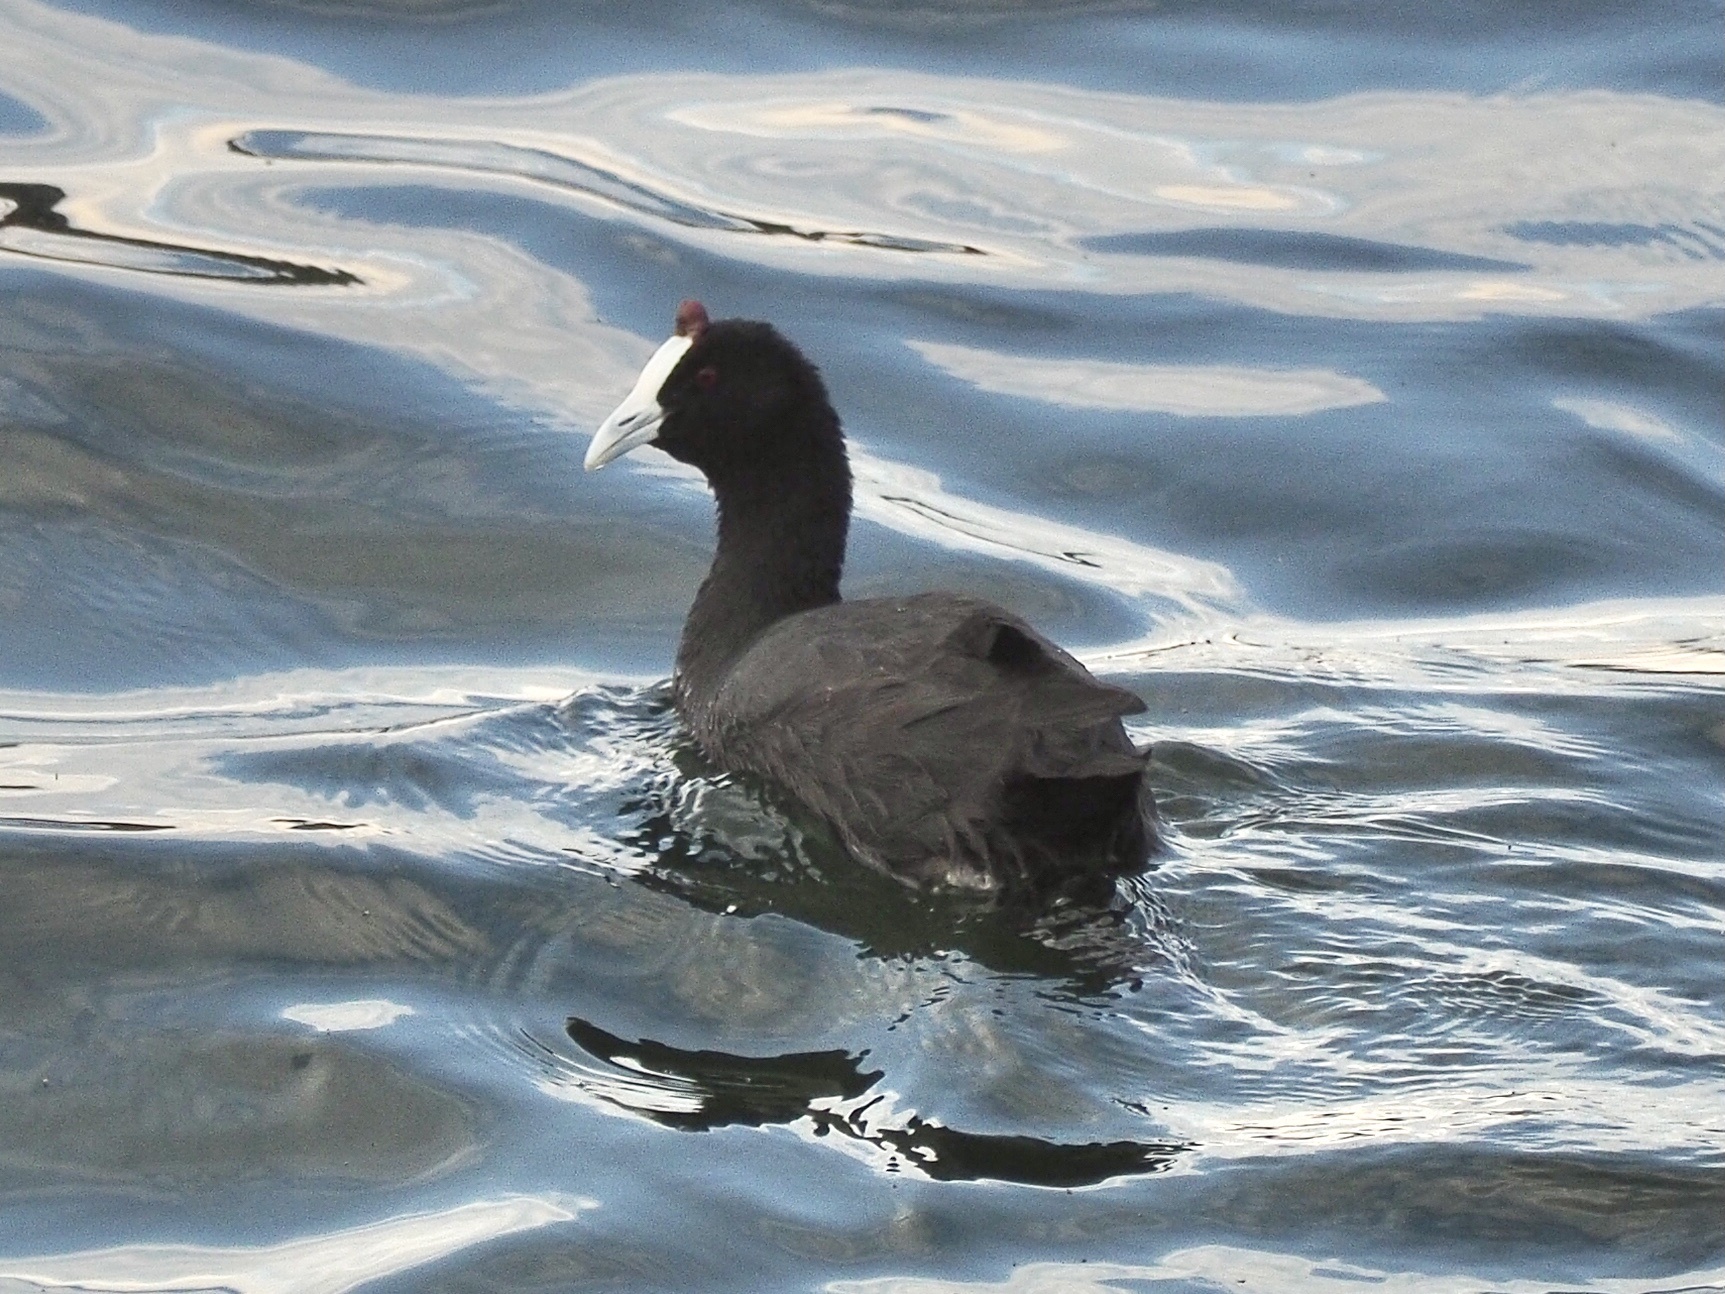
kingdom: Animalia
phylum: Chordata
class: Aves
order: Gruiformes
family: Rallidae
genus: Fulica
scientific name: Fulica cristata
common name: Red-knobbed coot
